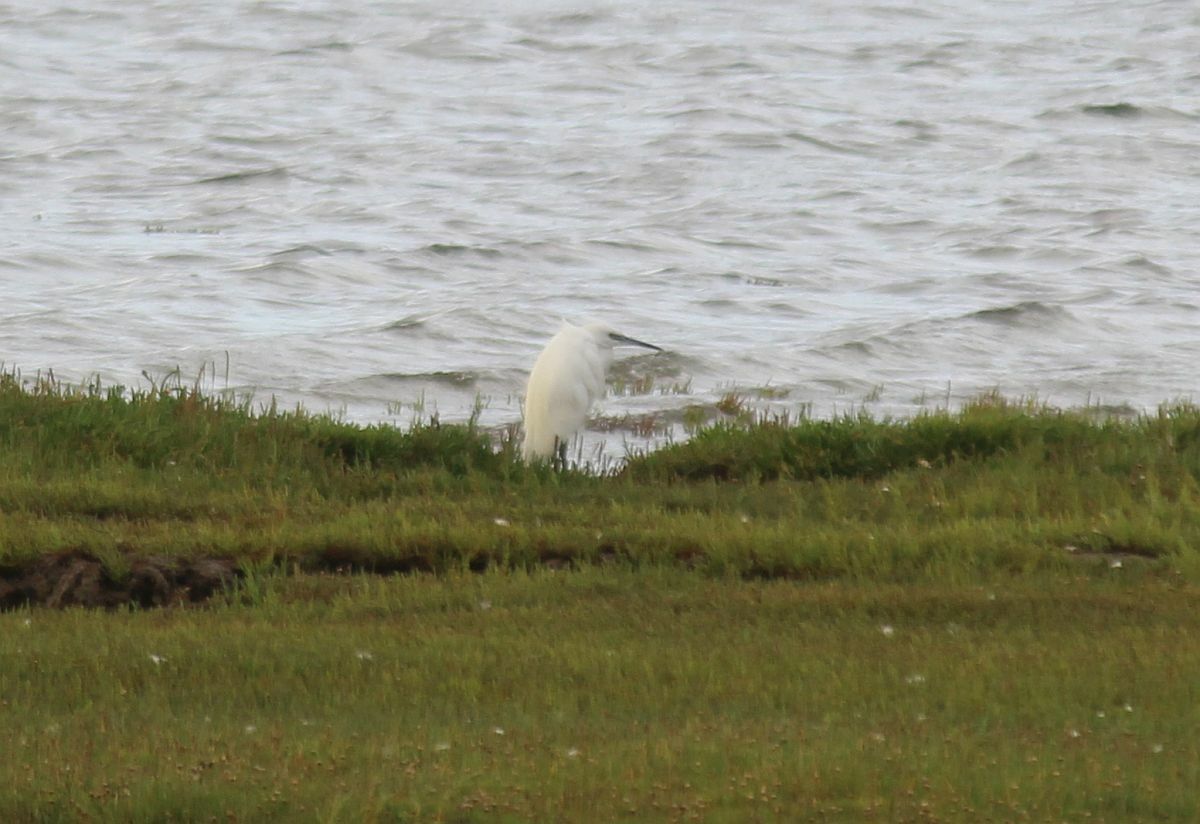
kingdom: Animalia
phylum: Chordata
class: Aves
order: Pelecaniformes
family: Ardeidae
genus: Egretta
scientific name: Egretta garzetta
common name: Little egret
